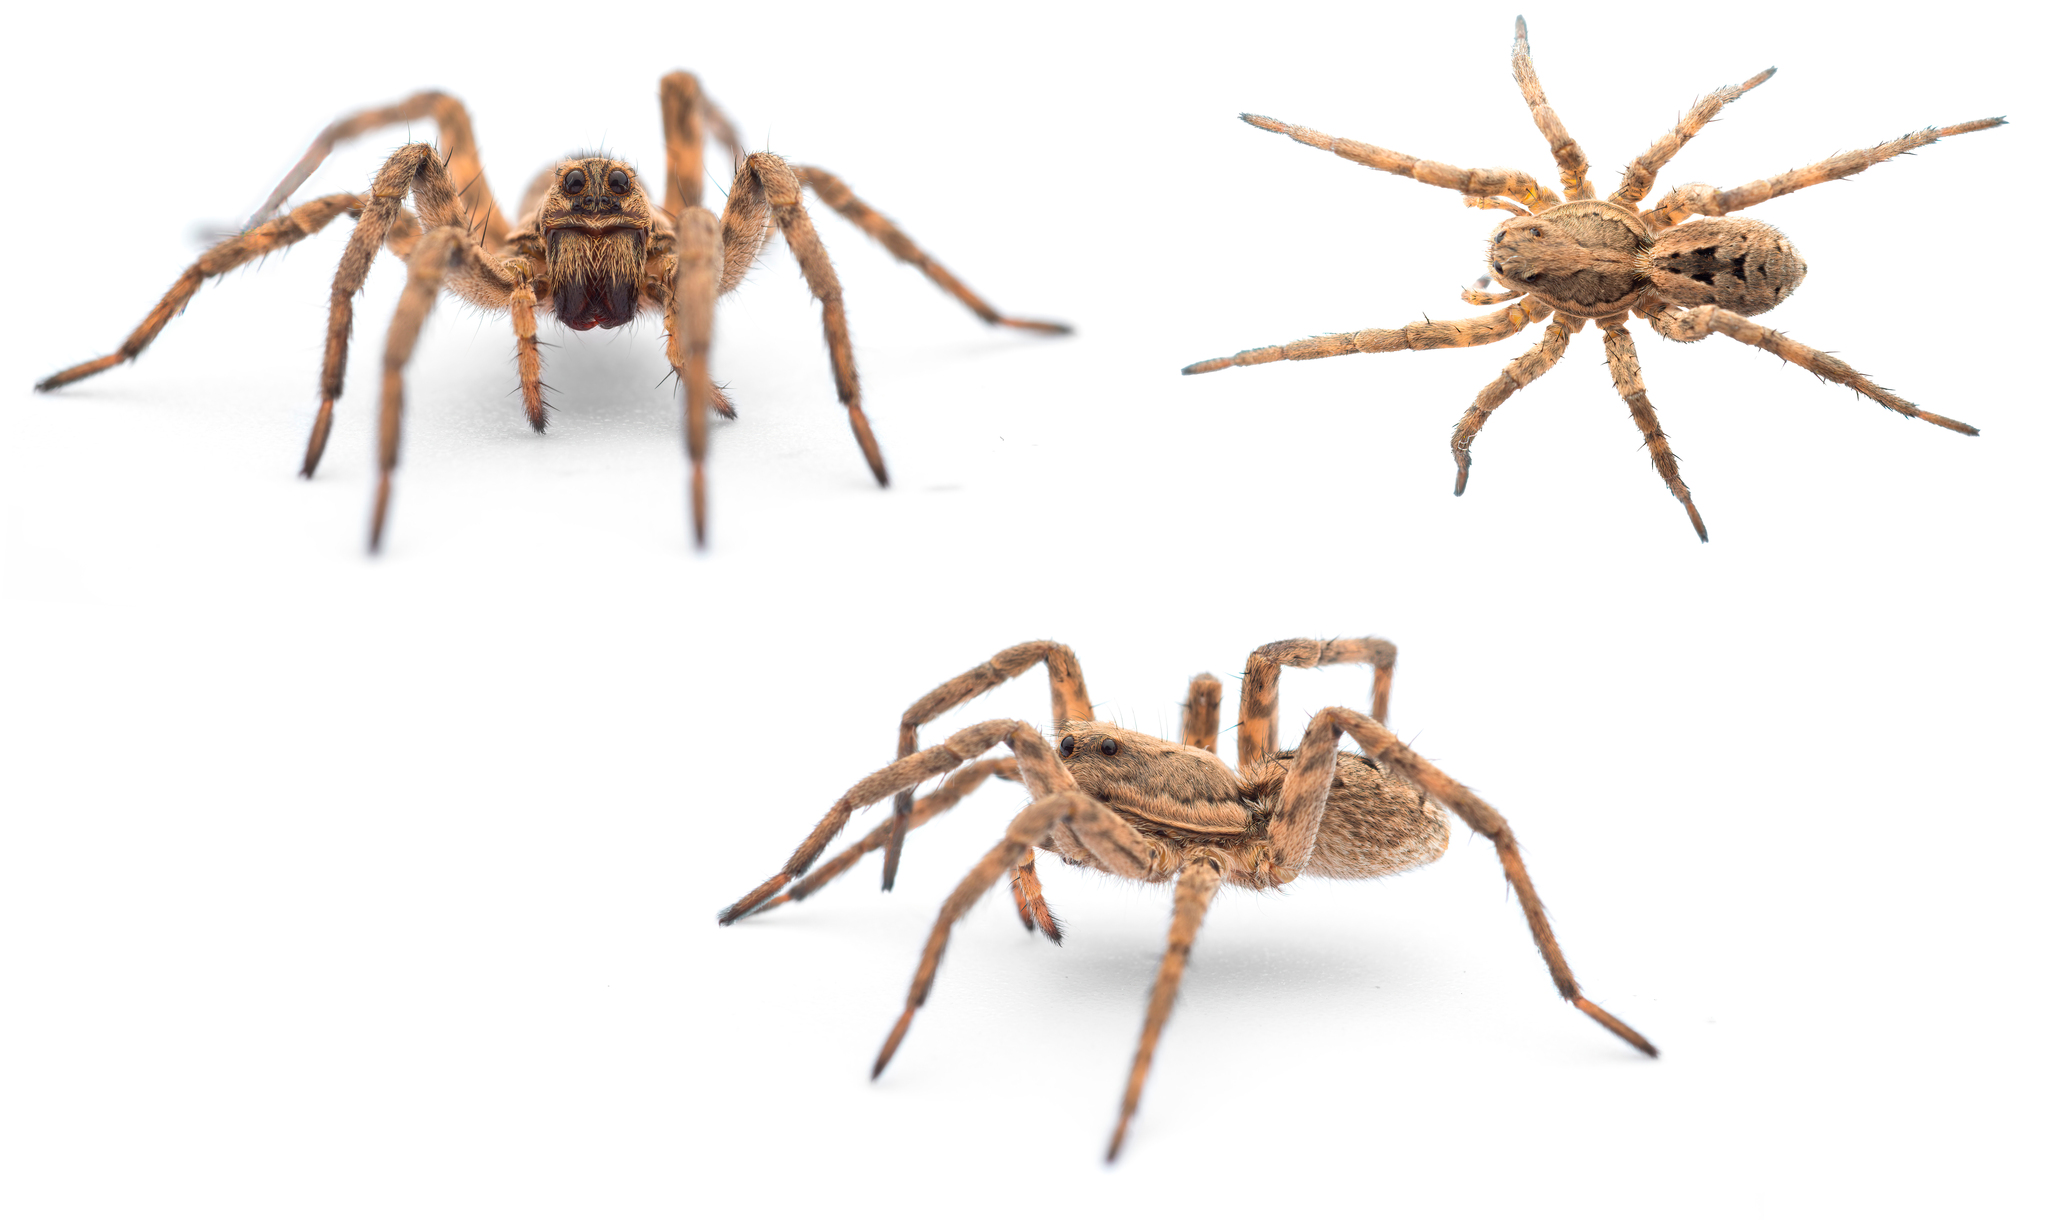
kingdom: Animalia
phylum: Arthropoda
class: Arachnida
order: Araneae
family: Lycosidae
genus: Lycosa
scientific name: Lycosa fasciiventris
